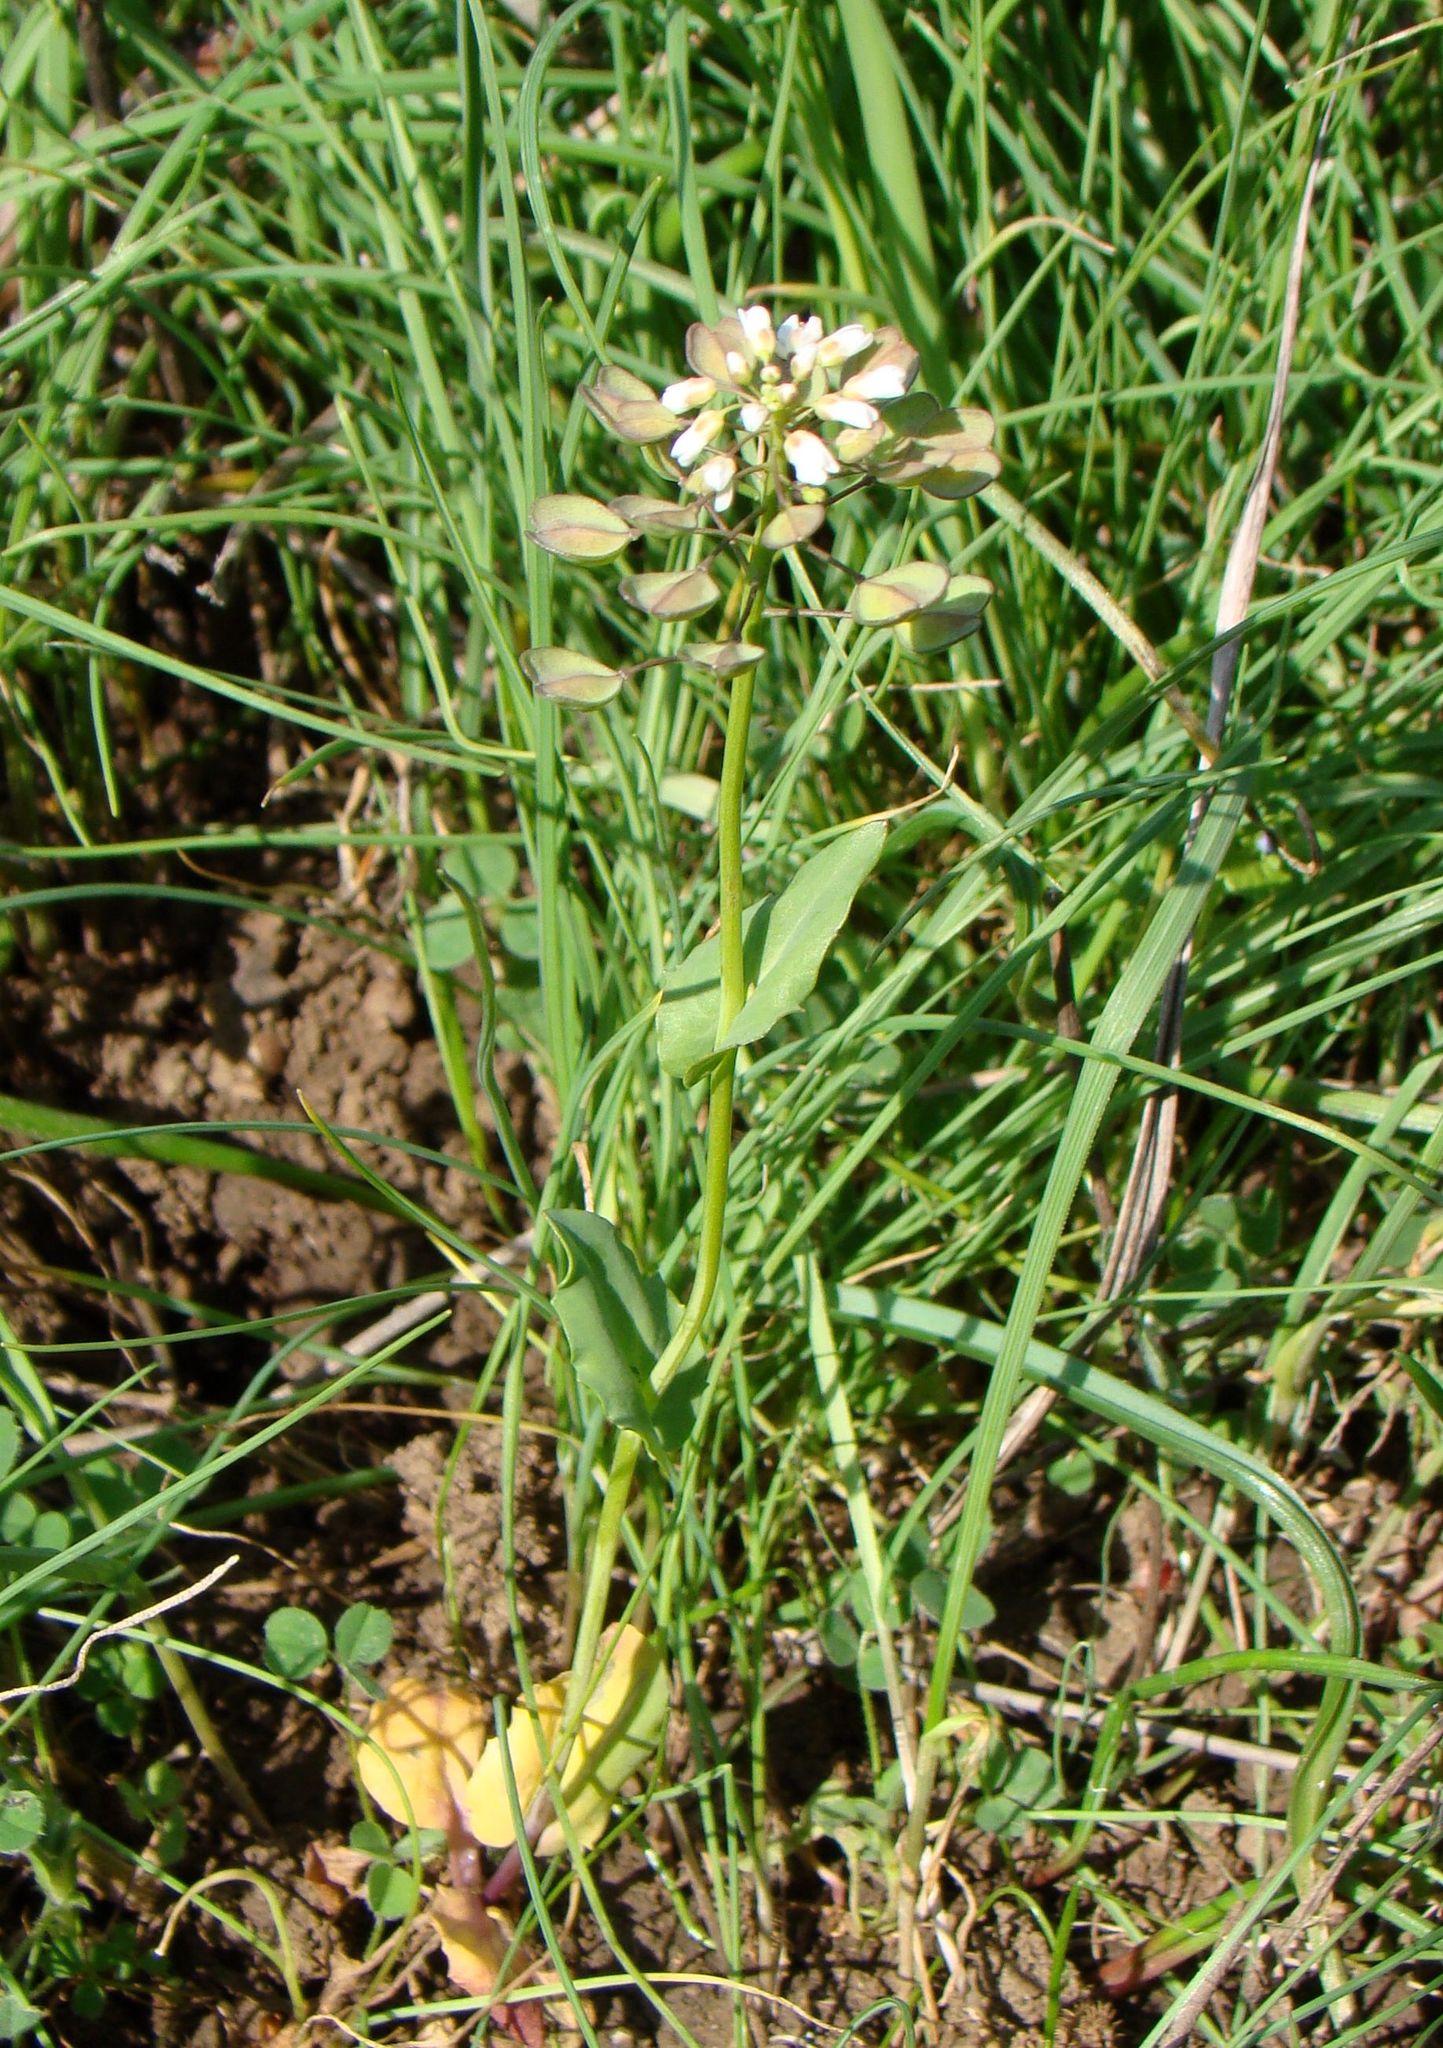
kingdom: Plantae
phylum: Tracheophyta
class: Magnoliopsida
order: Brassicales
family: Brassicaceae
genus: Noccaea
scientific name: Noccaea perfoliata
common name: Perfoliate pennycress
